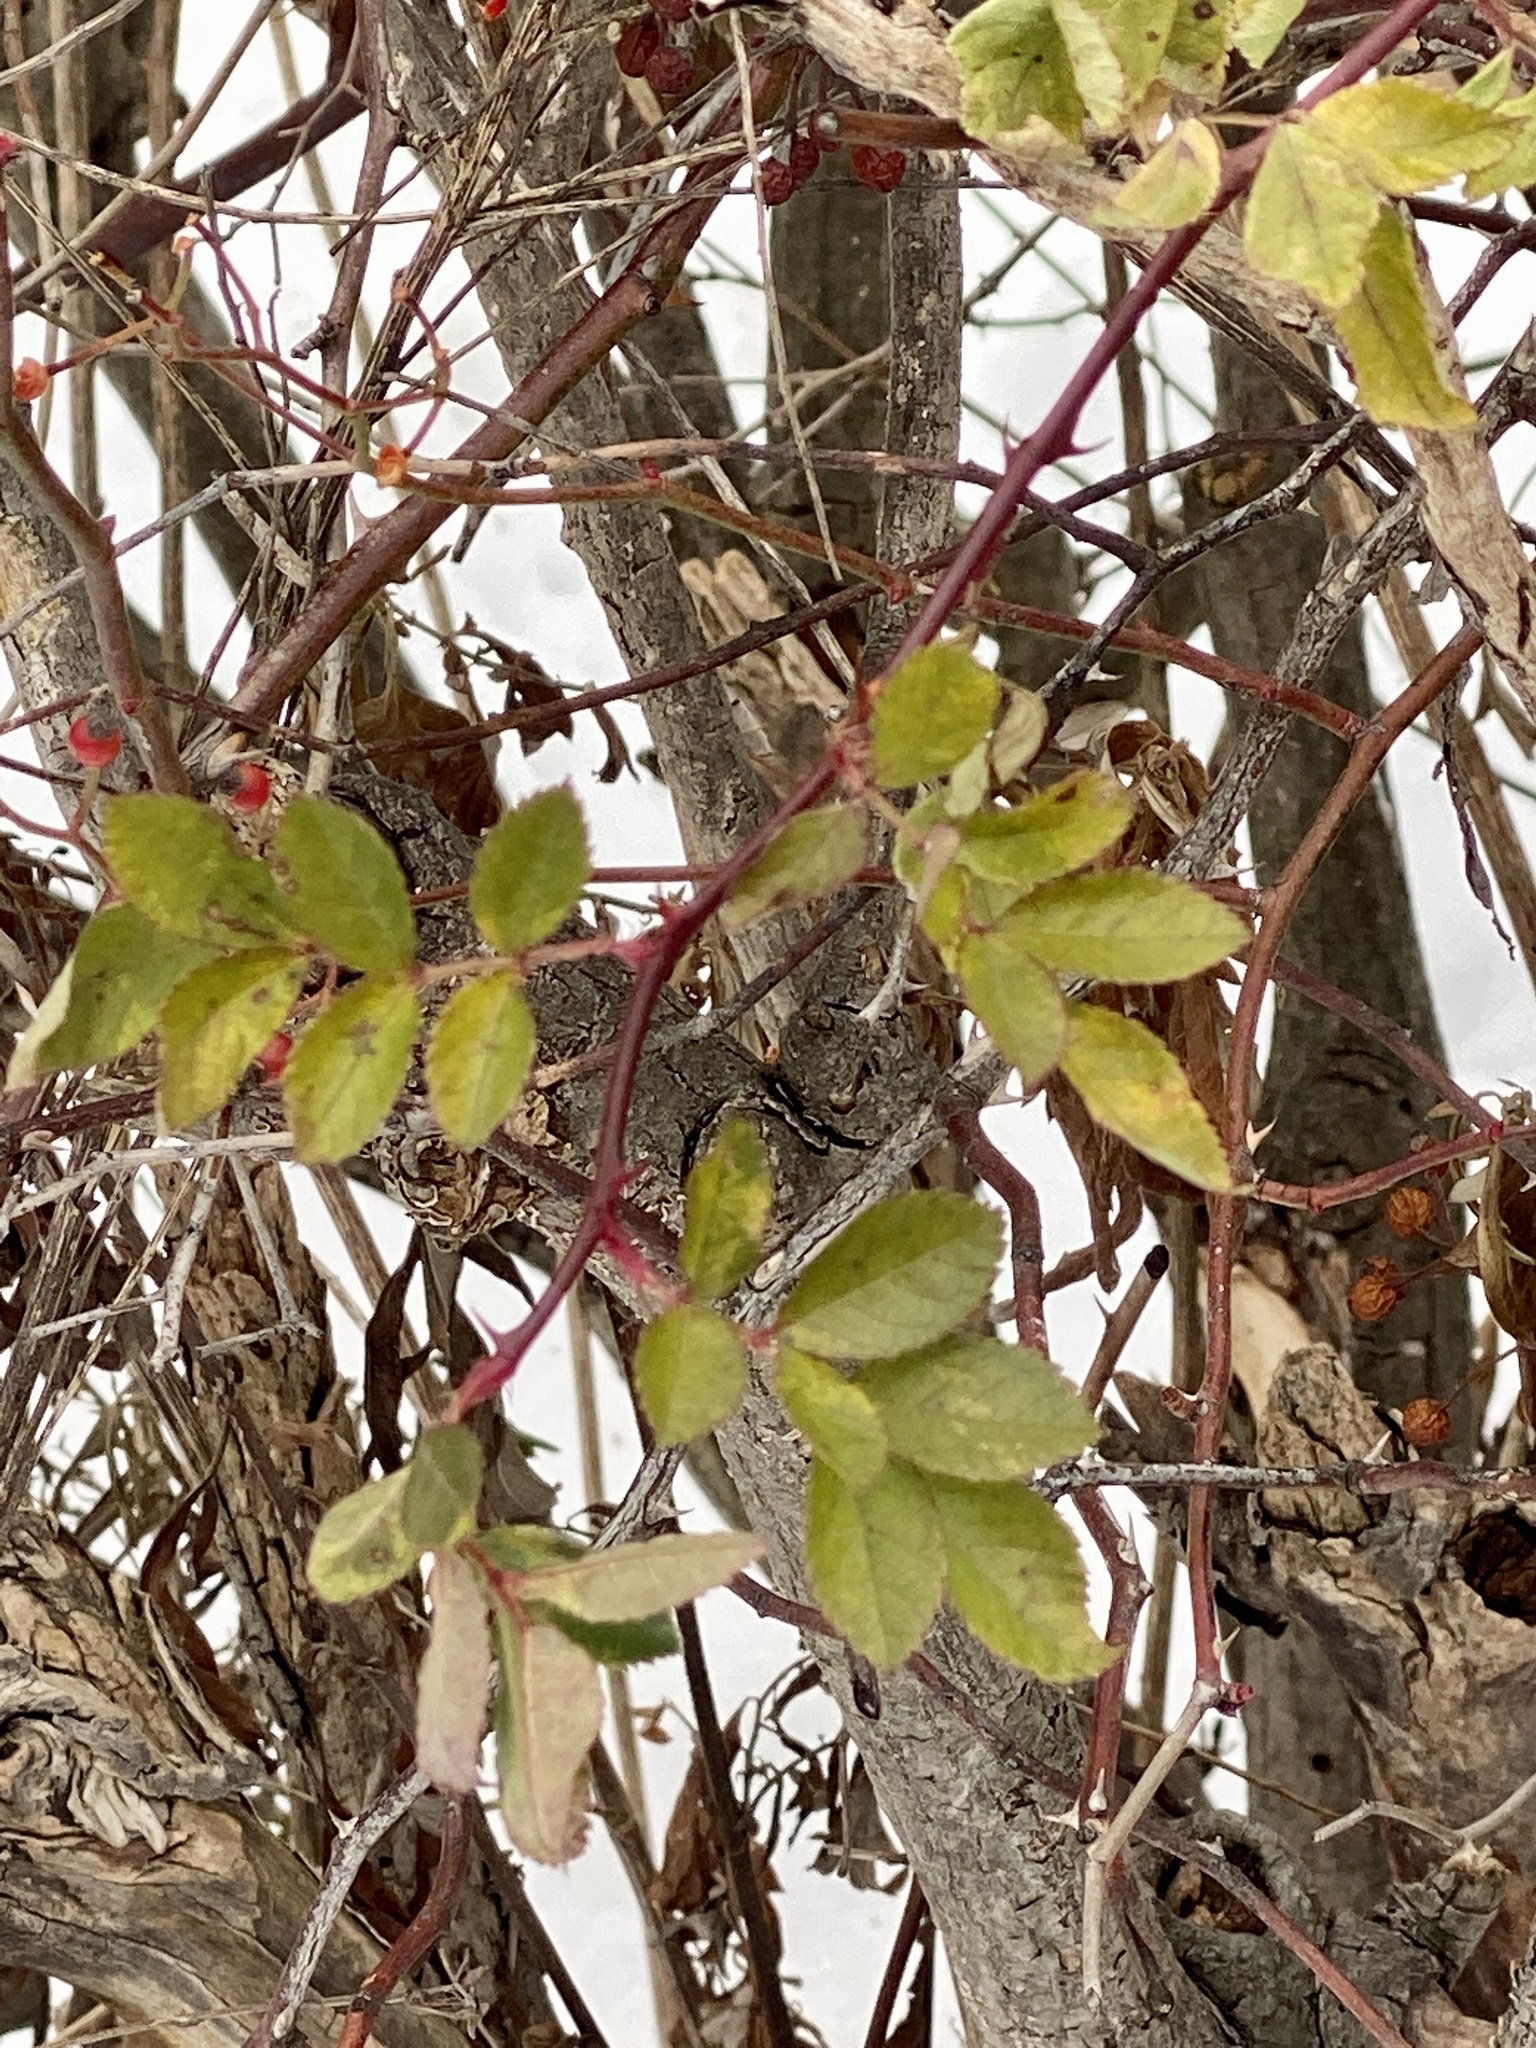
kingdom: Plantae
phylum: Tracheophyta
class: Magnoliopsida
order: Rosales
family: Rosaceae
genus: Rosa
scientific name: Rosa multiflora
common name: Multiflora rose
